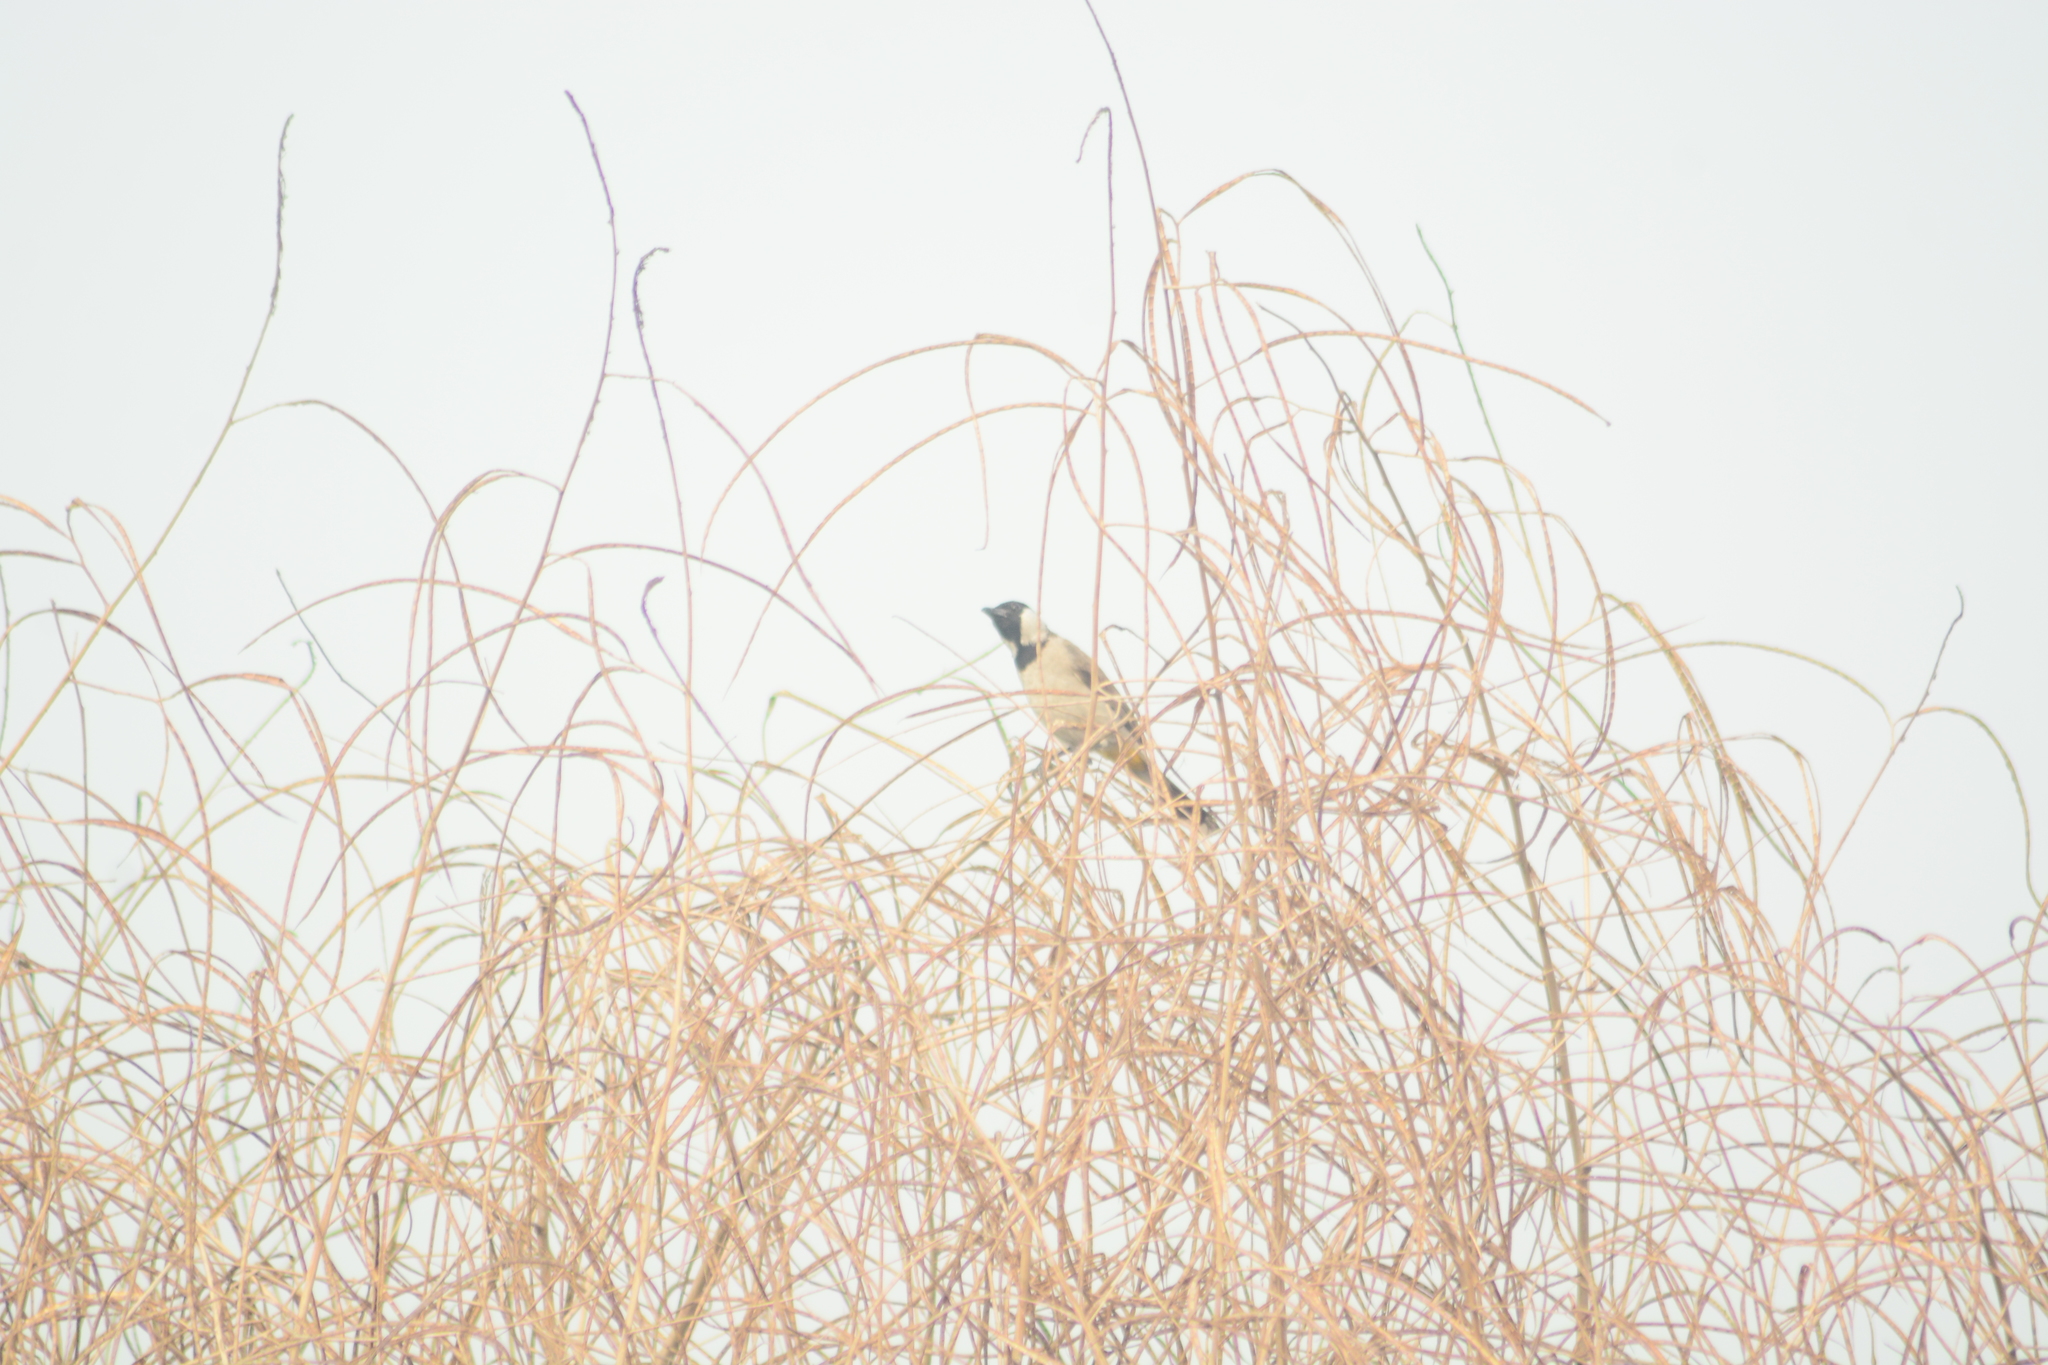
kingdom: Animalia
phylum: Chordata
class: Aves
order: Passeriformes
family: Pycnonotidae
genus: Pycnonotus
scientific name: Pycnonotus leucotis
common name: White-eared bulbul
